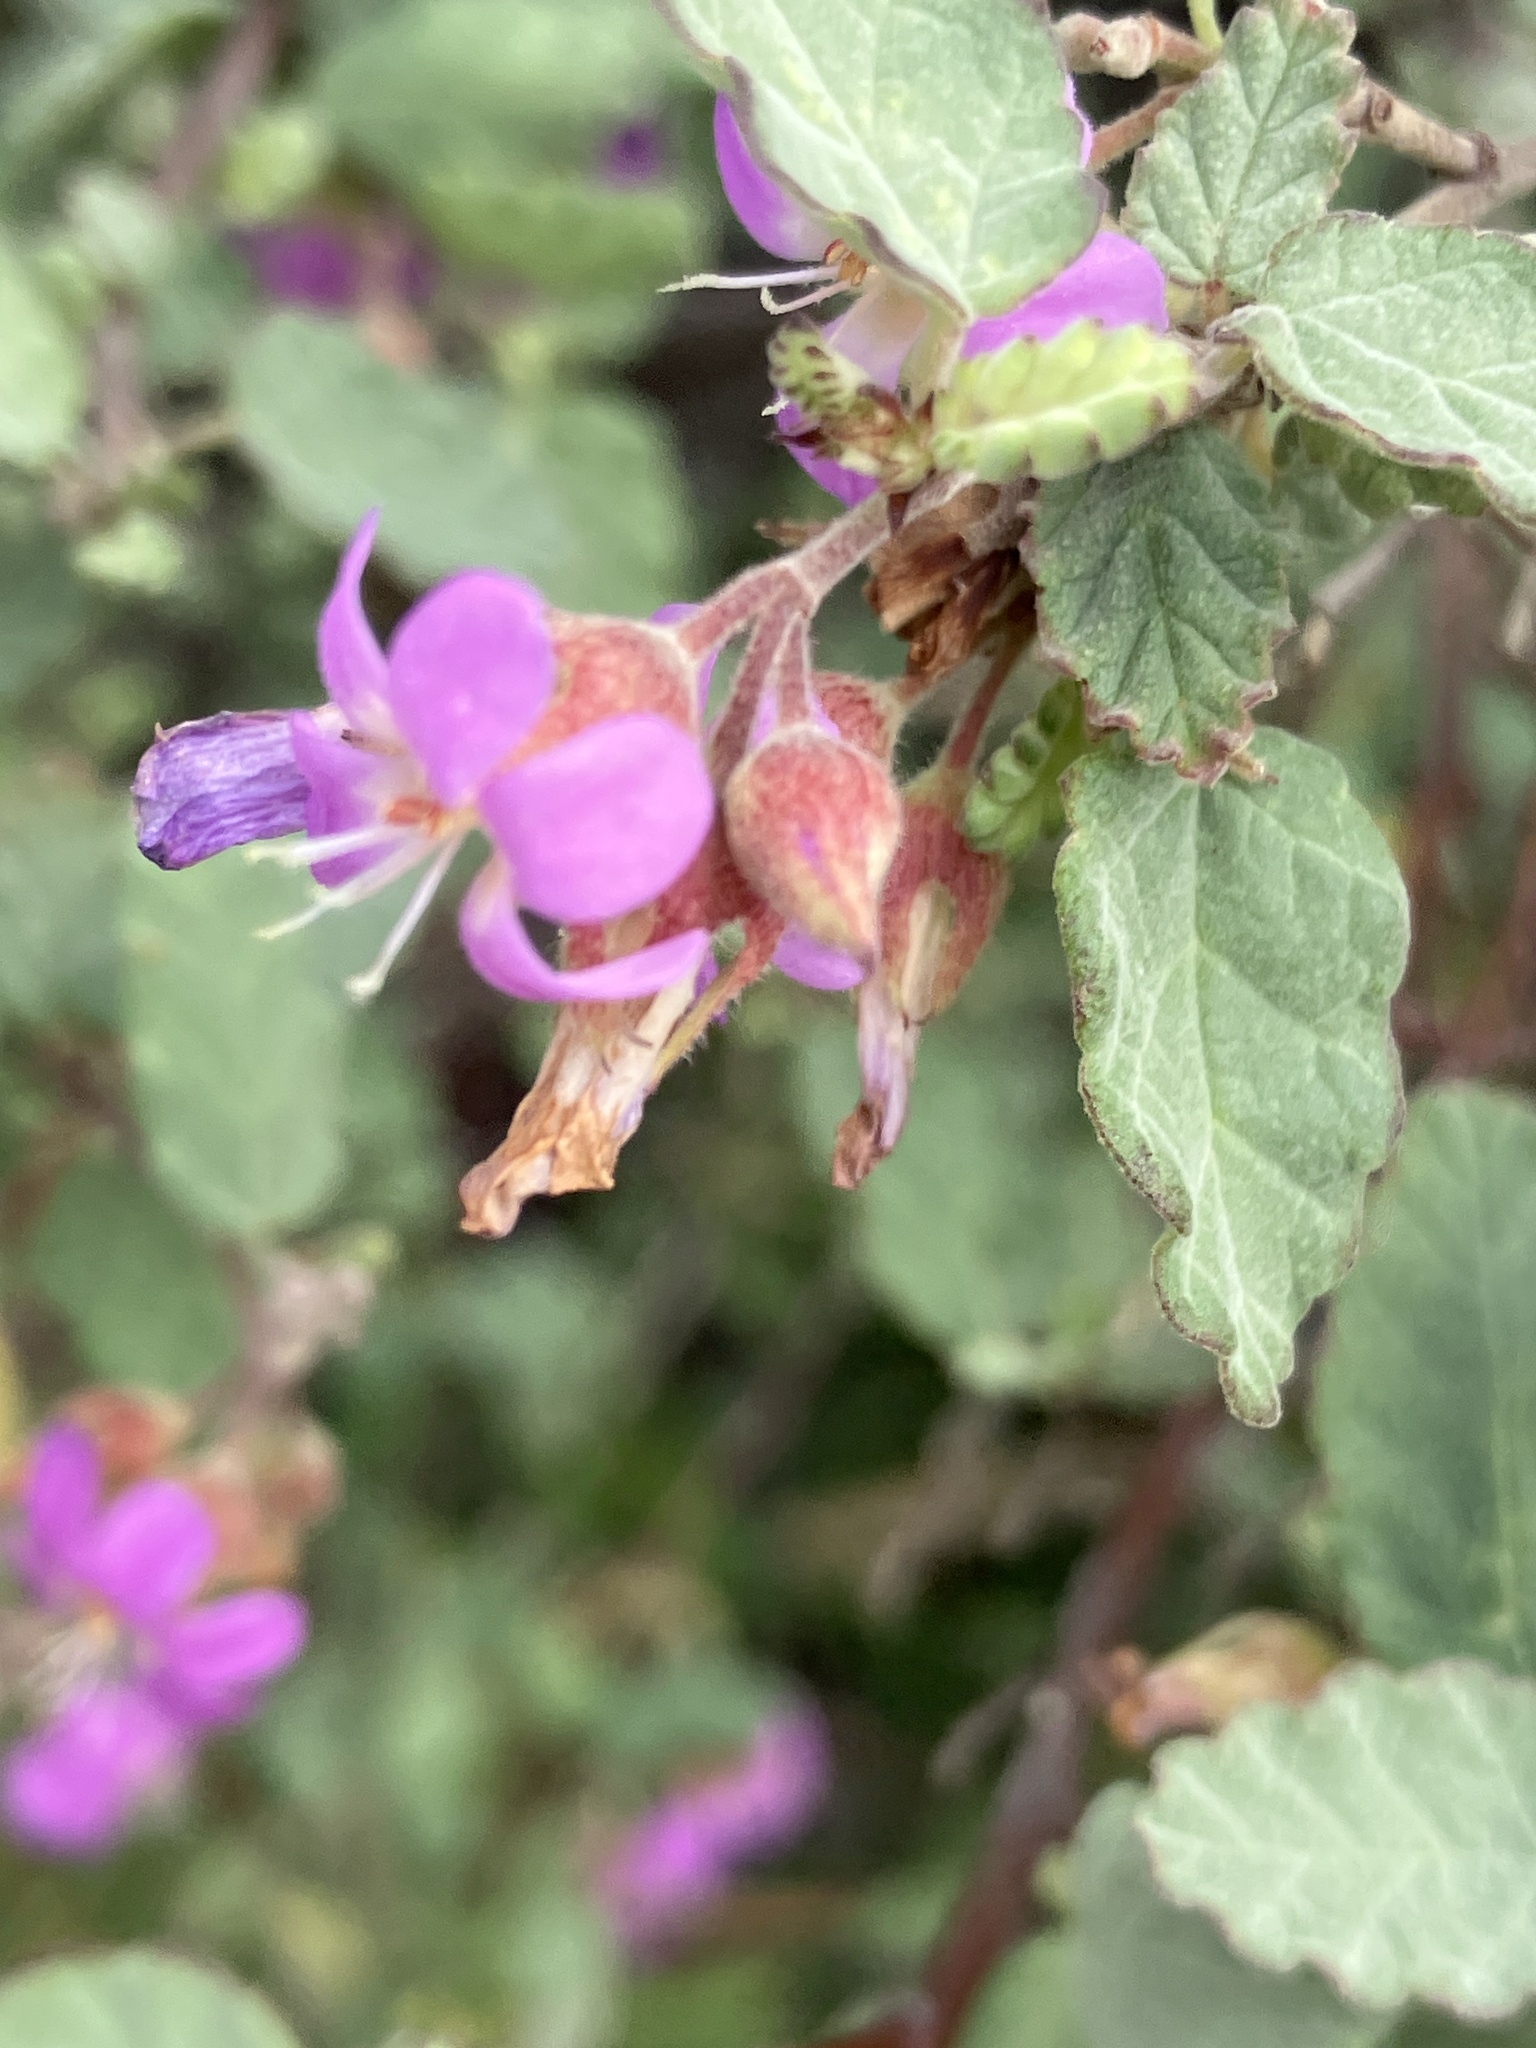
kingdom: Plantae
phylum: Tracheophyta
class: Magnoliopsida
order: Malvales
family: Malvaceae
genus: Melochia
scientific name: Melochia tomentosa
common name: Black torch
